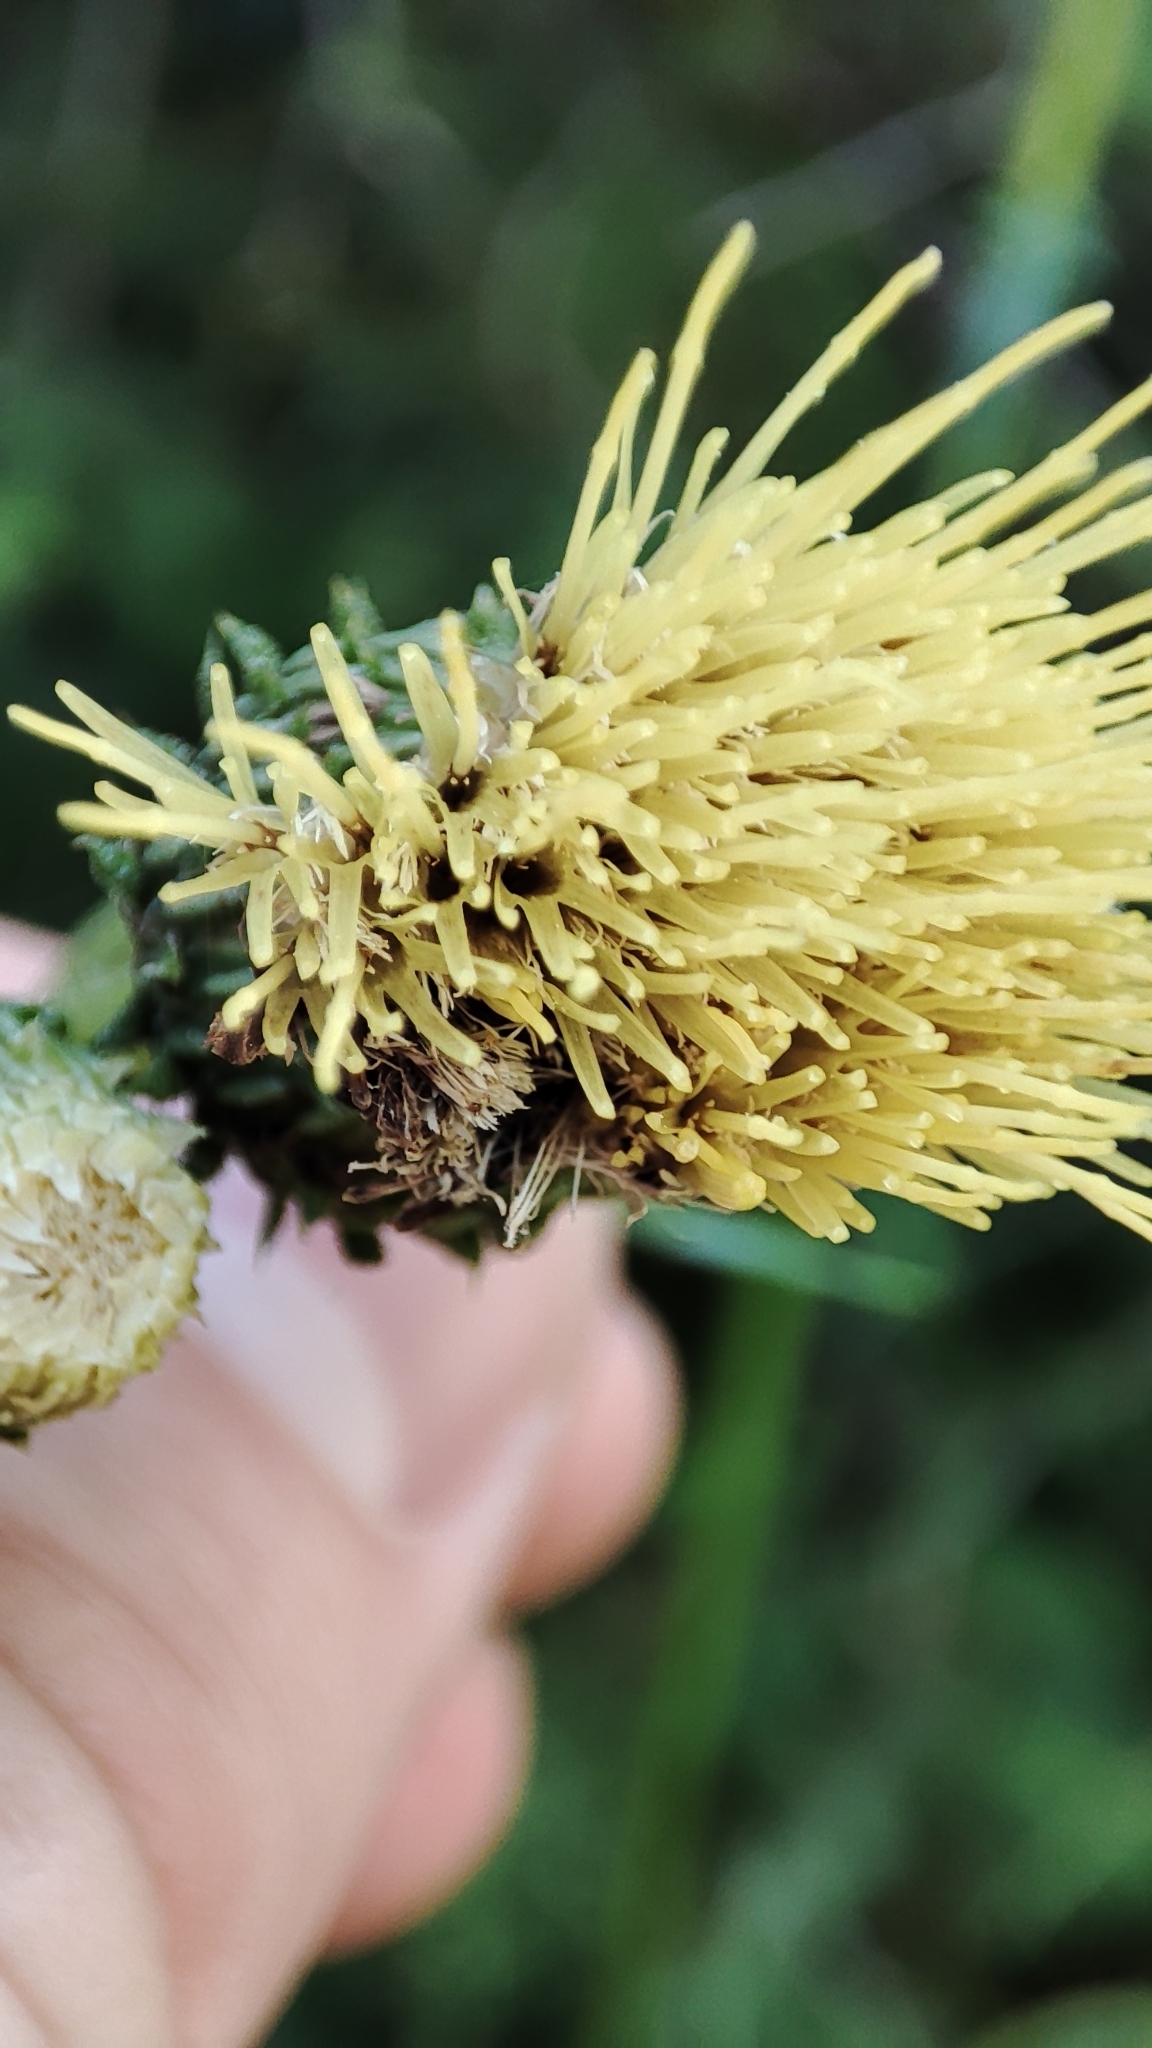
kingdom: Plantae
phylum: Tracheophyta
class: Magnoliopsida
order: Asterales
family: Asteraceae
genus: Cirsium
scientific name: Cirsium erisithales
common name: Yellow thistle
